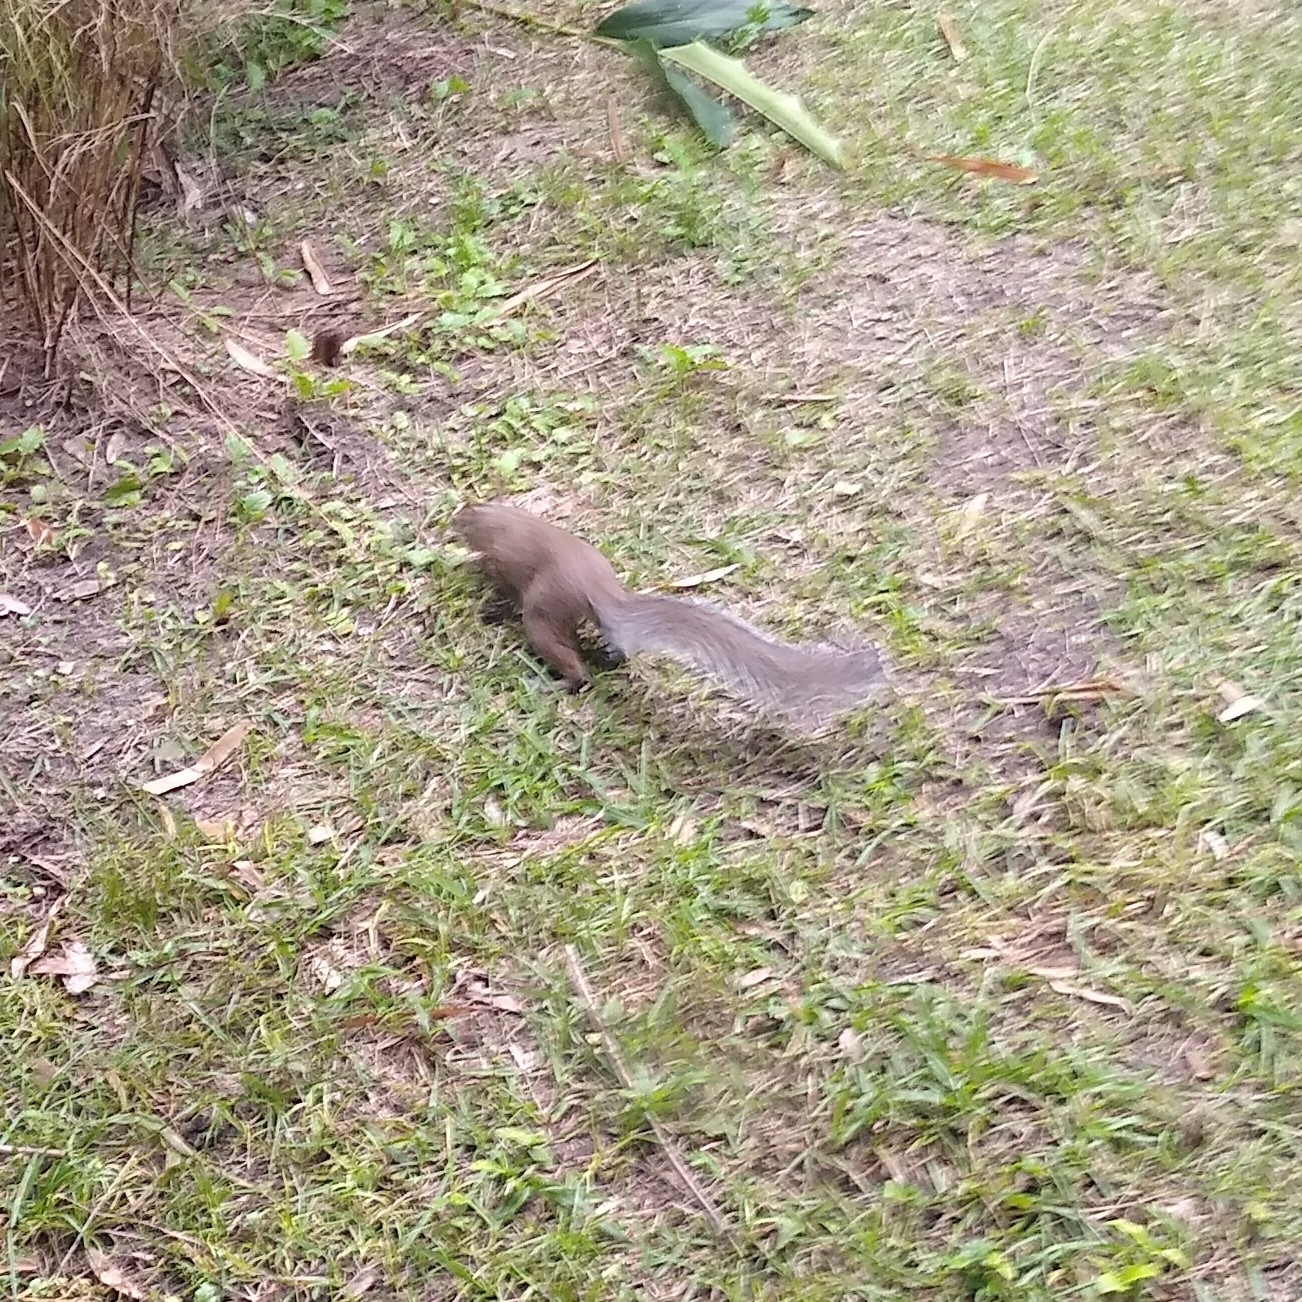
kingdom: Animalia
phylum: Chordata
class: Mammalia
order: Rodentia
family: Sciuridae
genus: Sciurus
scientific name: Sciurus carolinensis
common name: Eastern gray squirrel
